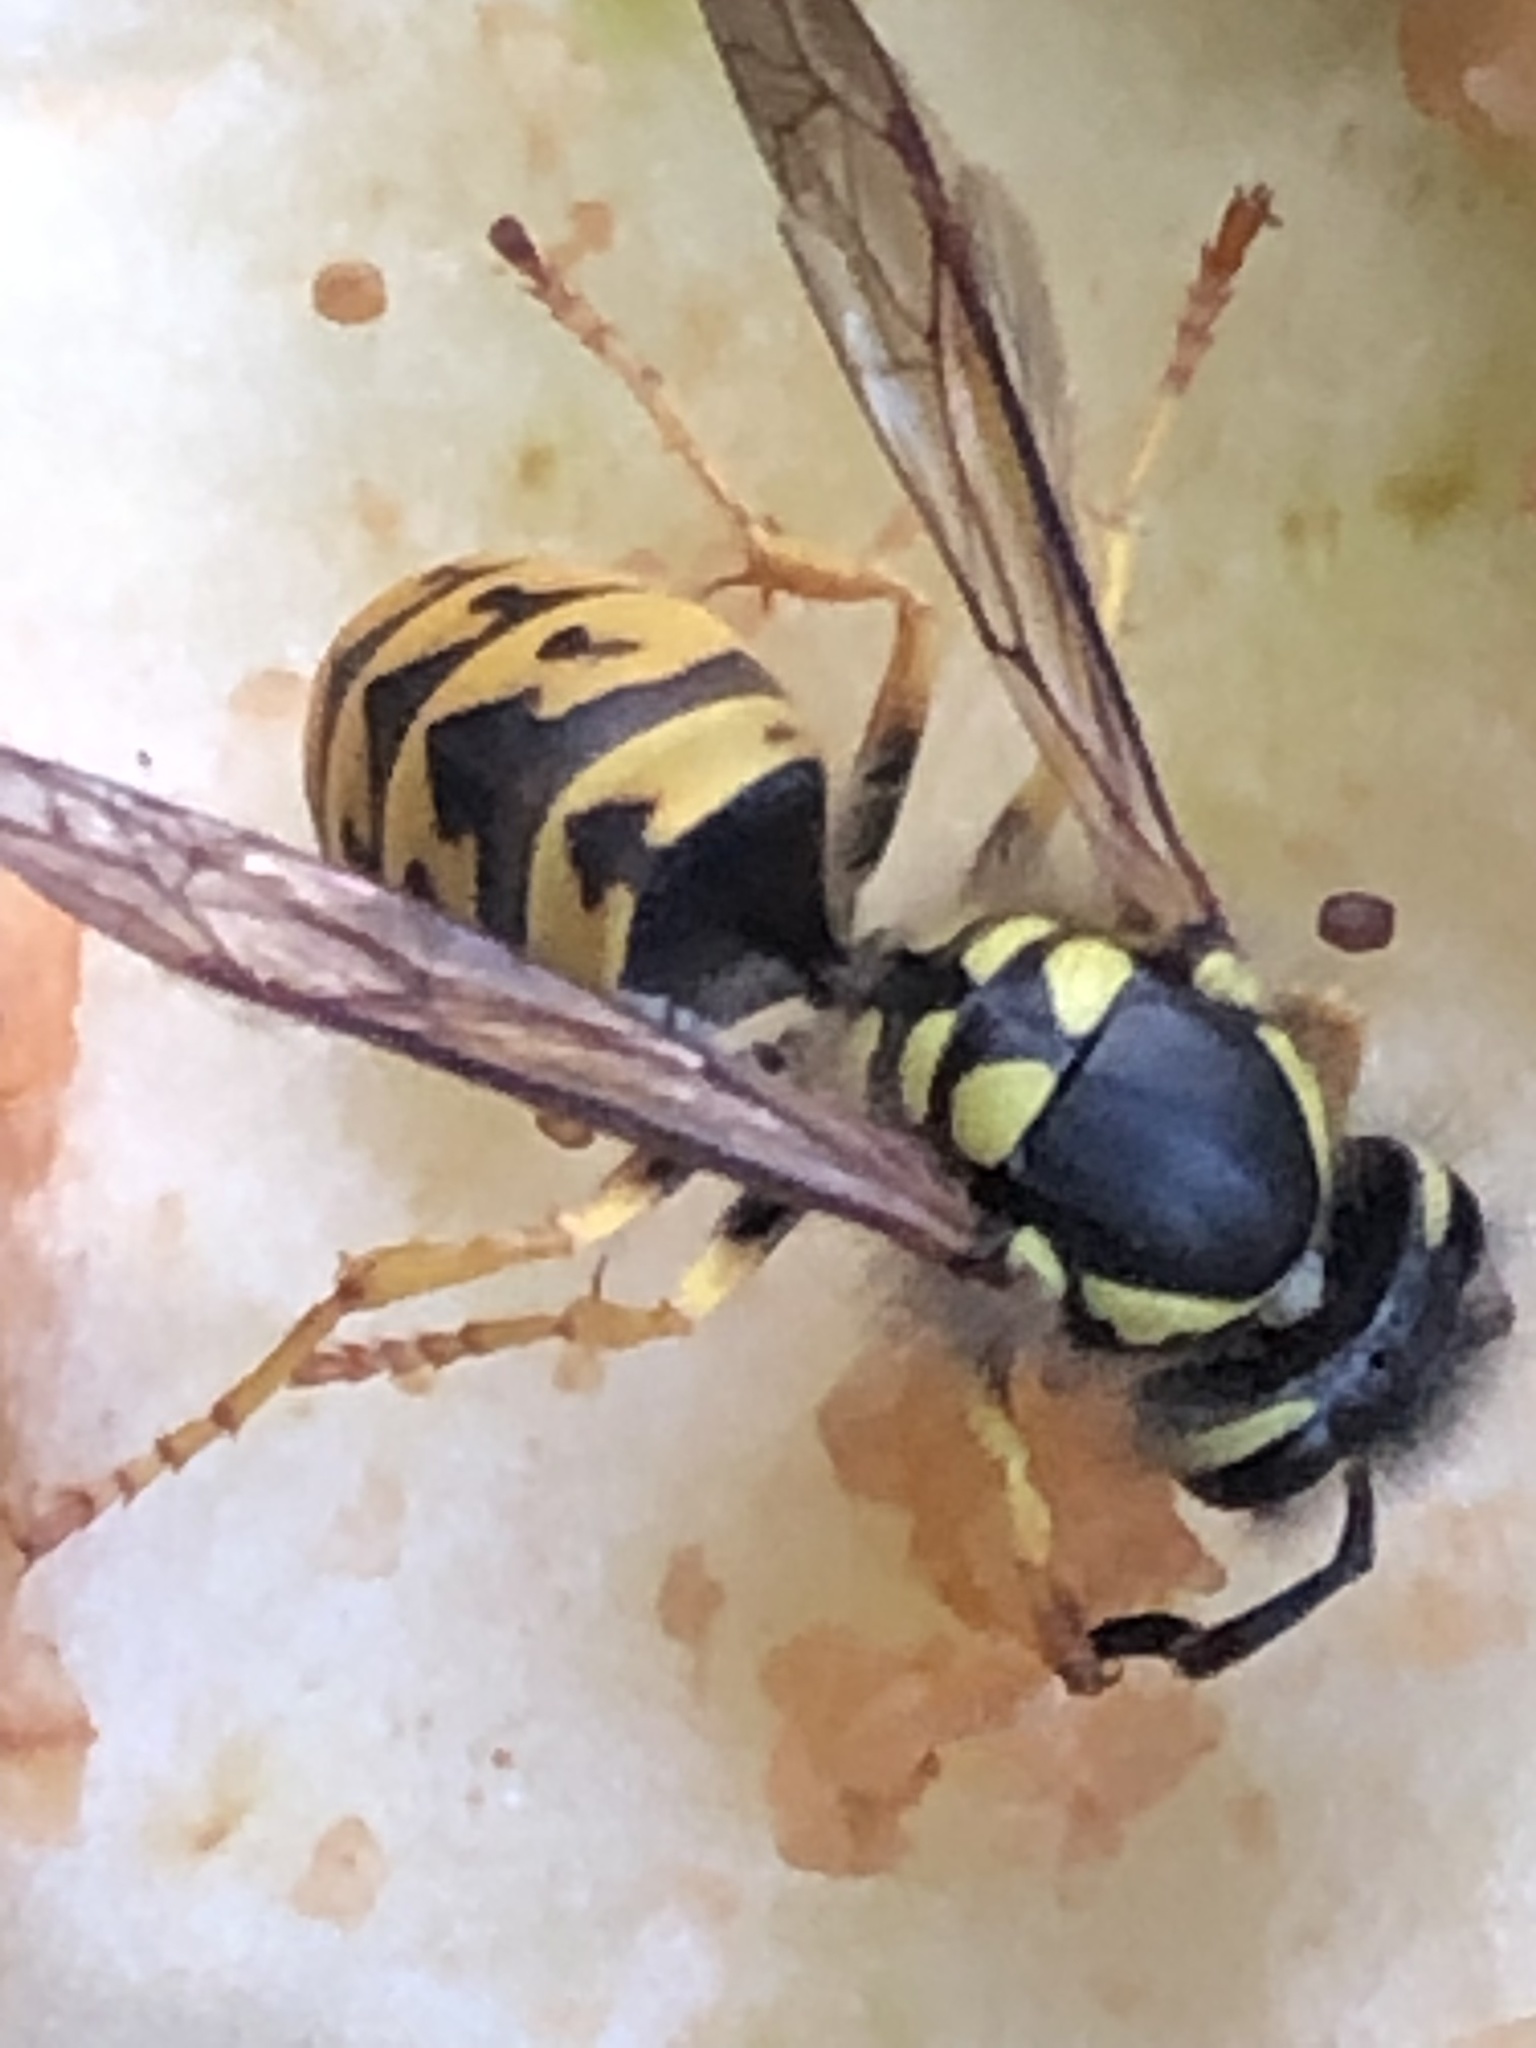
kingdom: Animalia
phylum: Arthropoda
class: Insecta
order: Hymenoptera
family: Vespidae
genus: Vespula
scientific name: Vespula germanica
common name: German wasp
